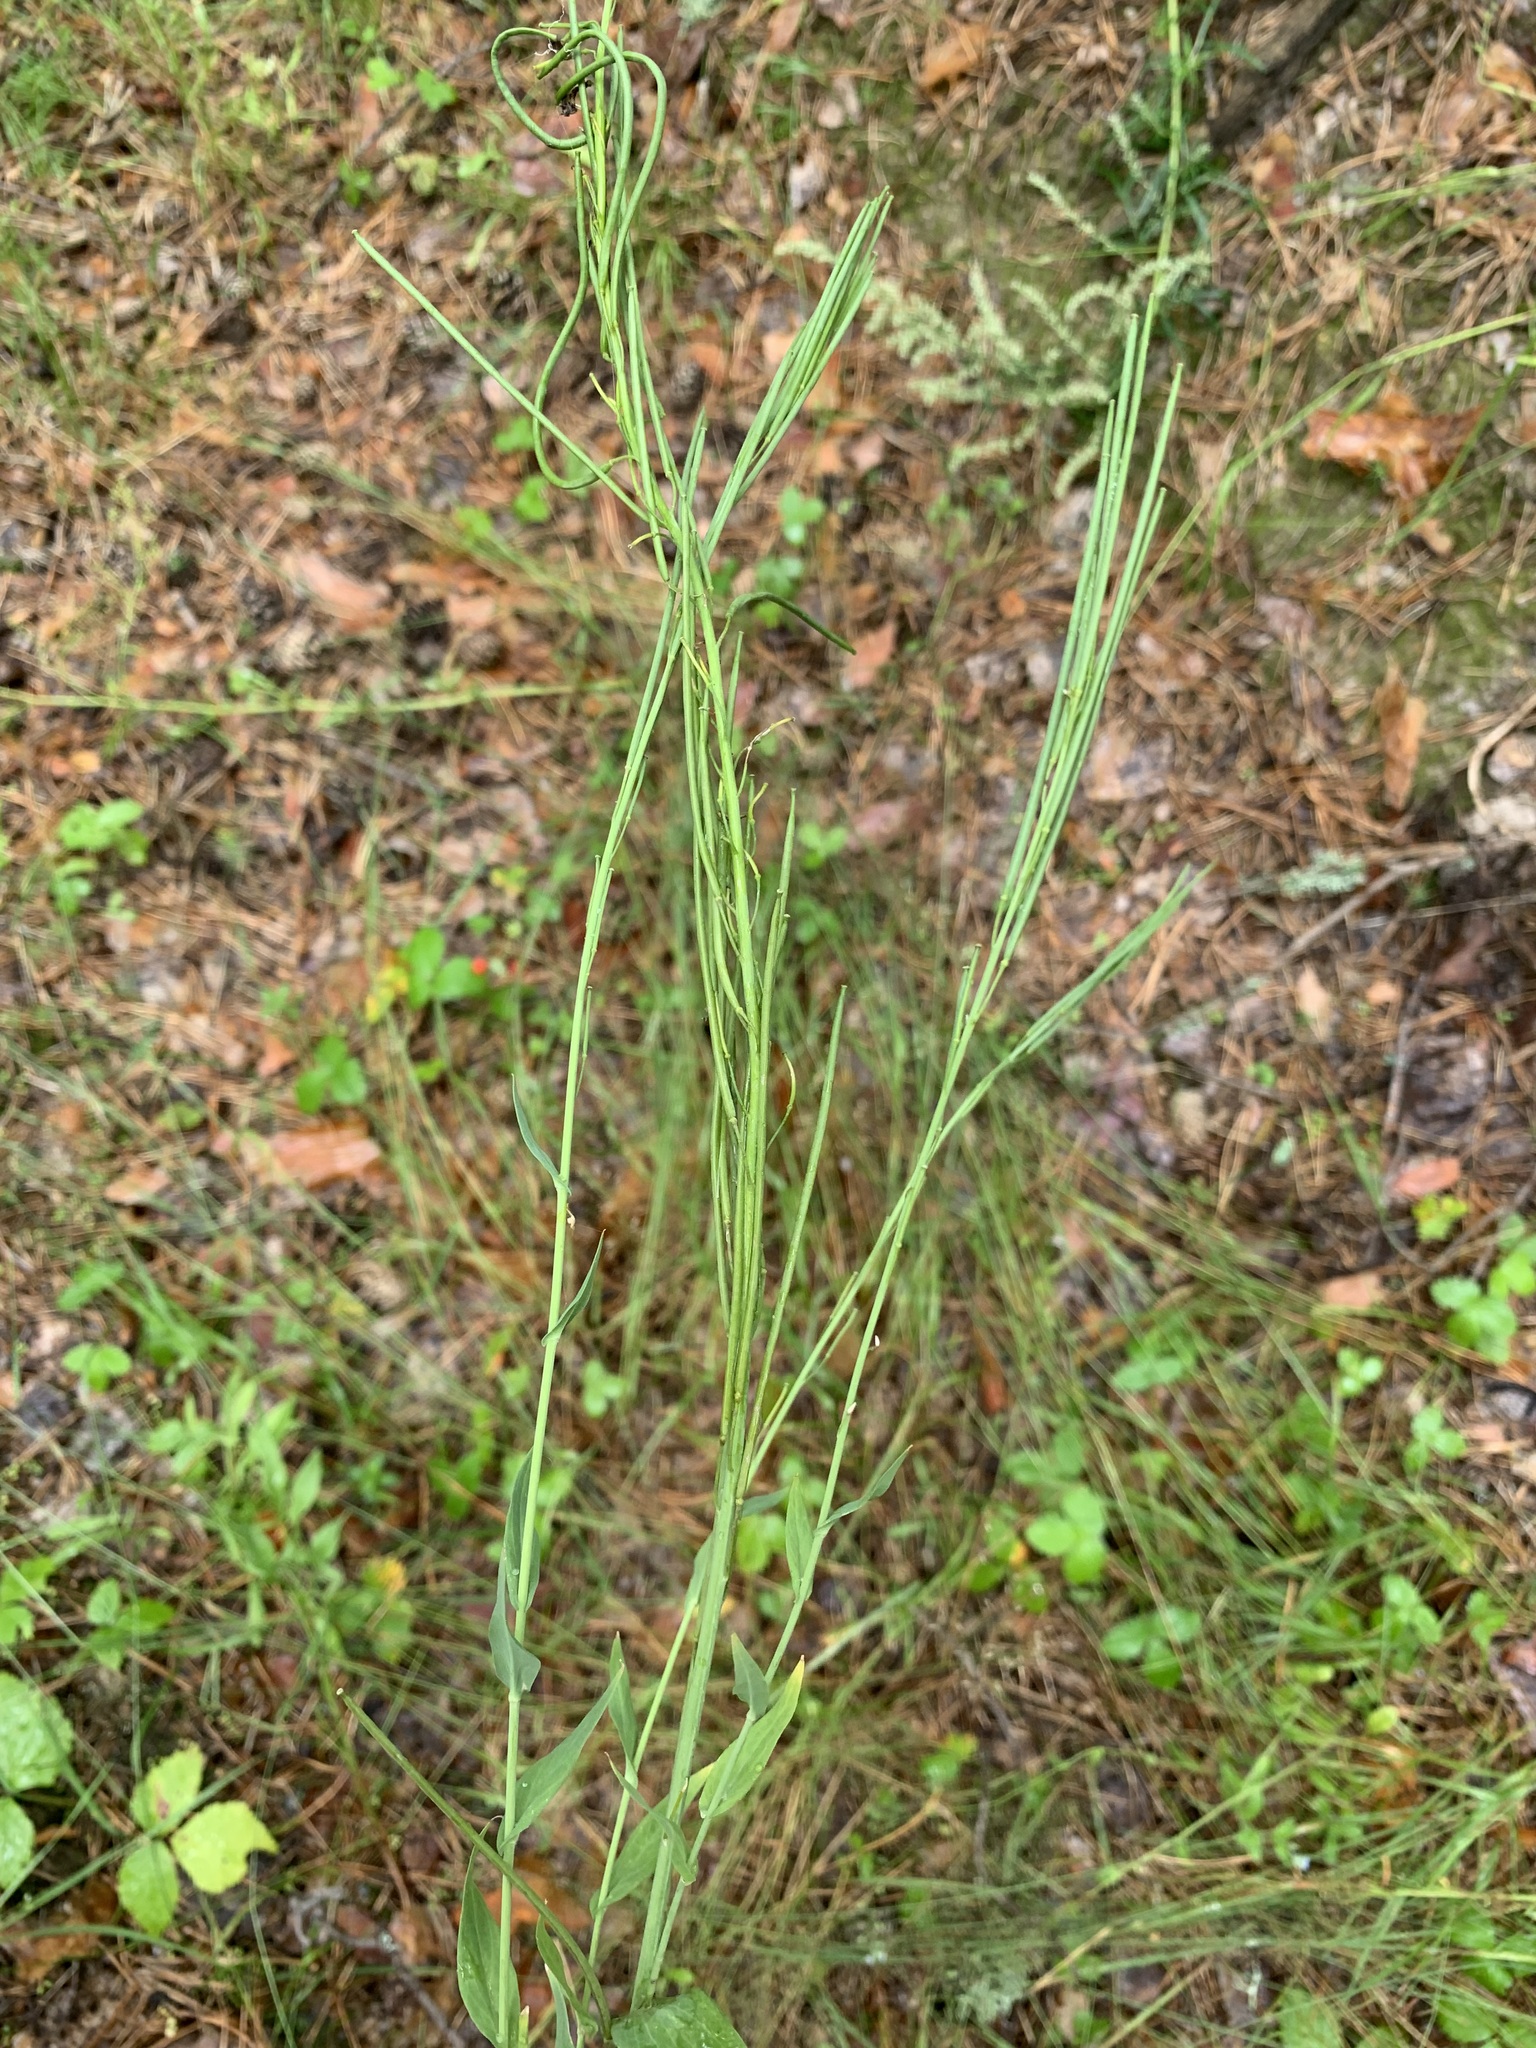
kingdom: Plantae
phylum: Tracheophyta
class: Magnoliopsida
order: Brassicales
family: Brassicaceae
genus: Turritis
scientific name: Turritis glabra
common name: Tower rockcress
